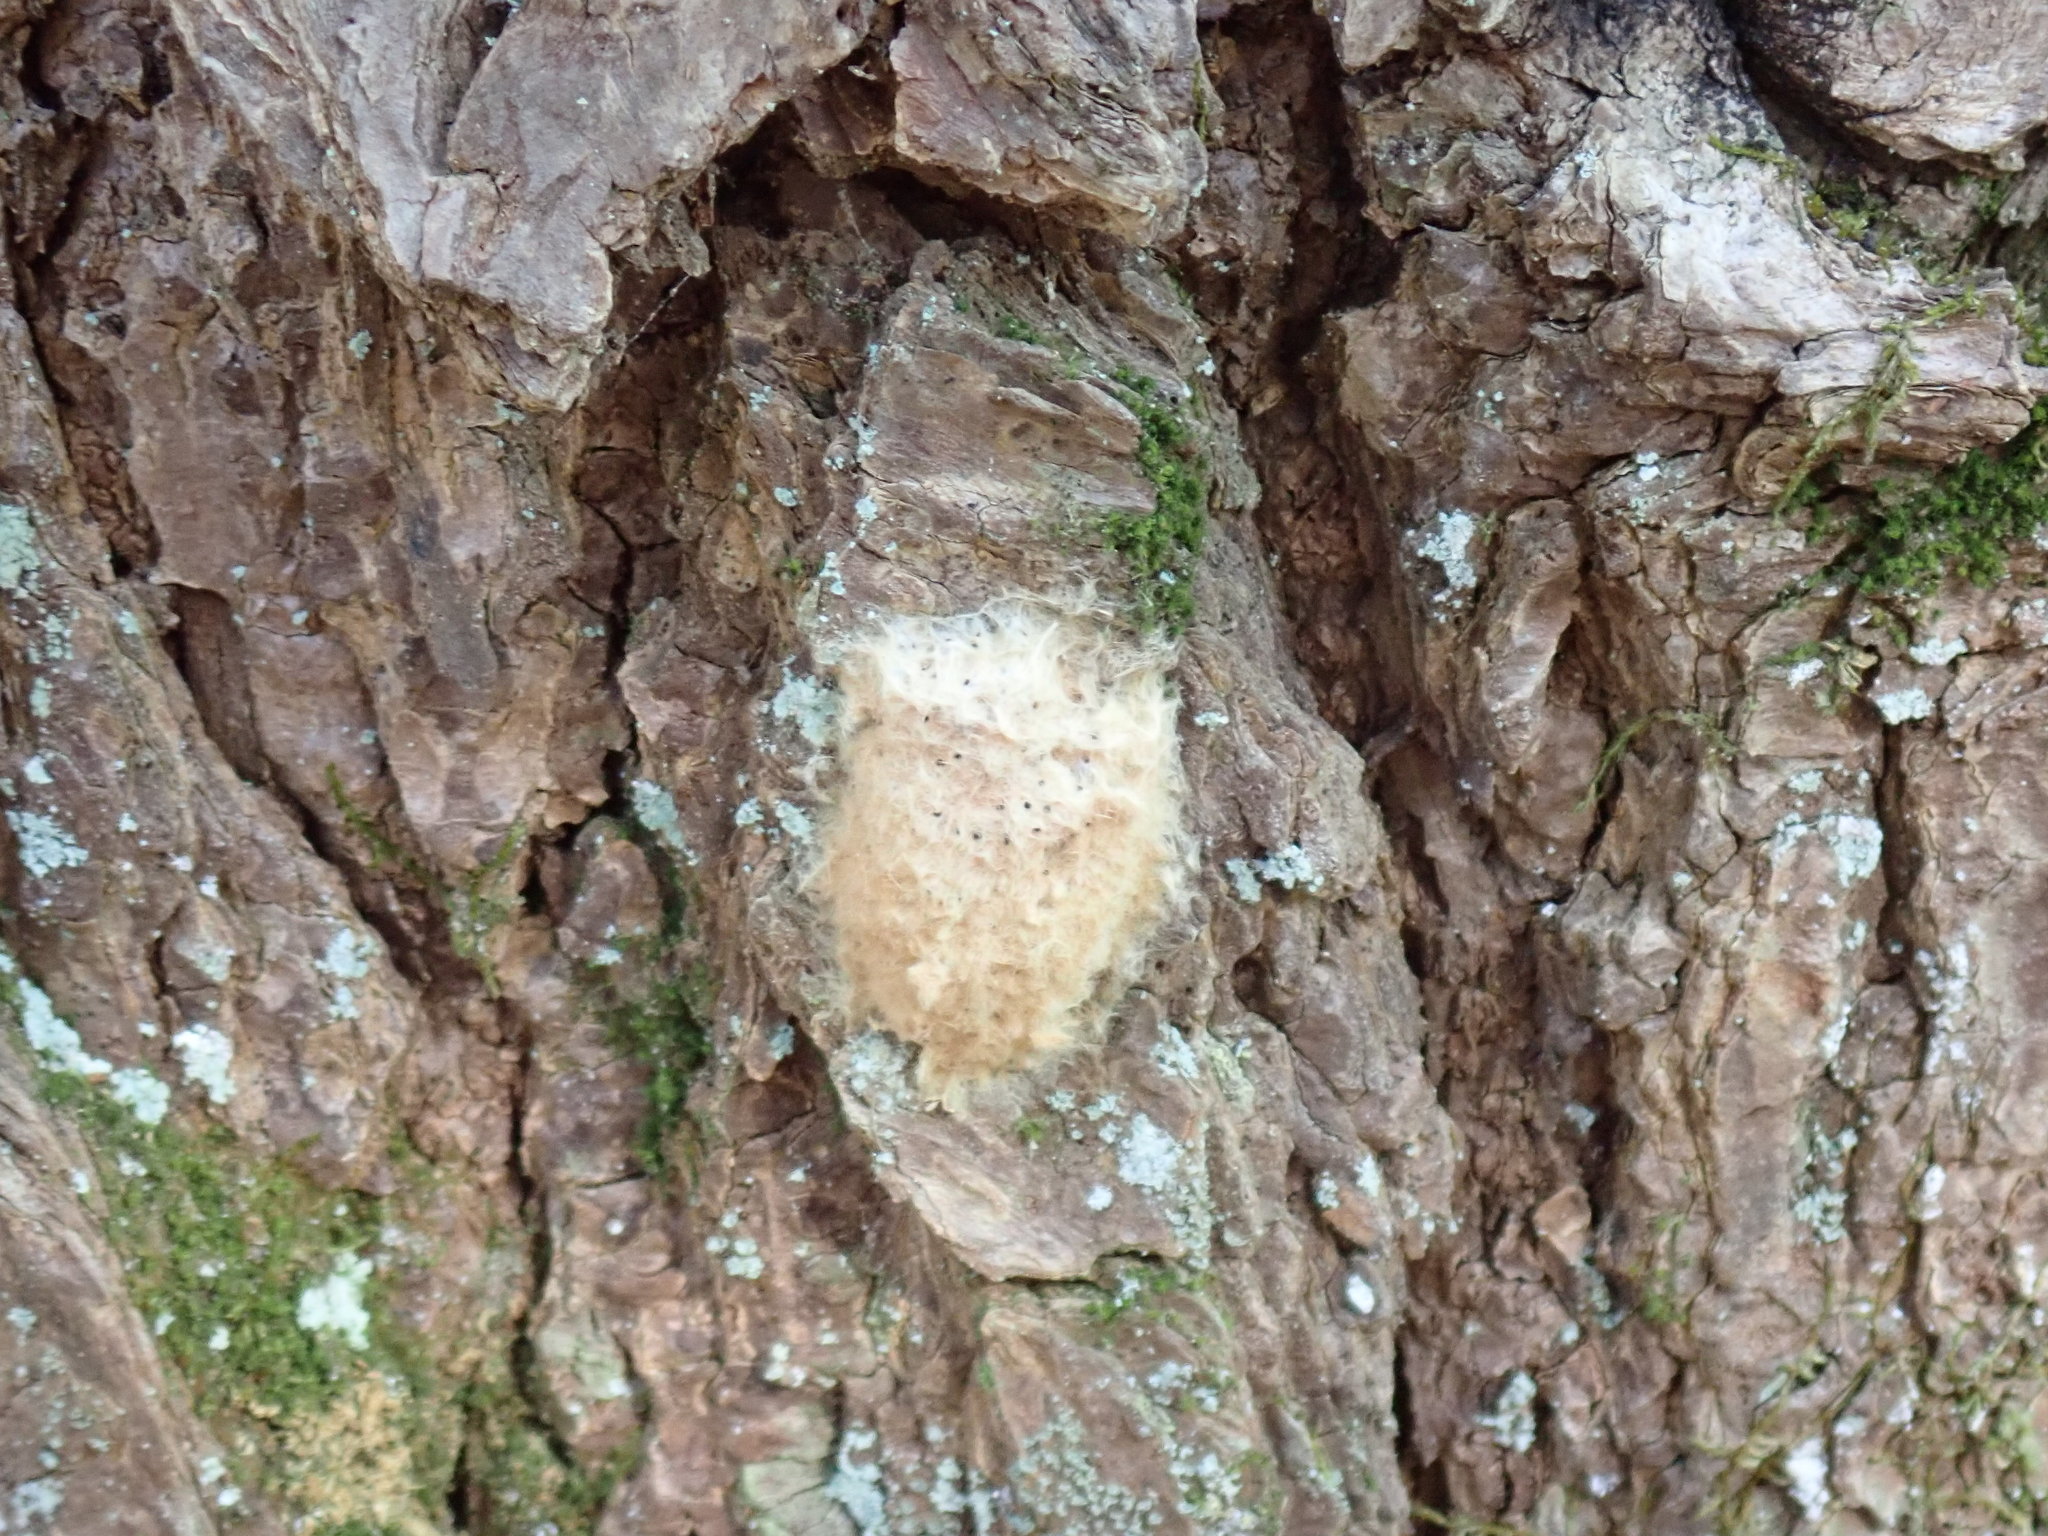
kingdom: Animalia
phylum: Arthropoda
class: Insecta
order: Lepidoptera
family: Erebidae
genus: Lymantria
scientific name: Lymantria dispar
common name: Gypsy moth
